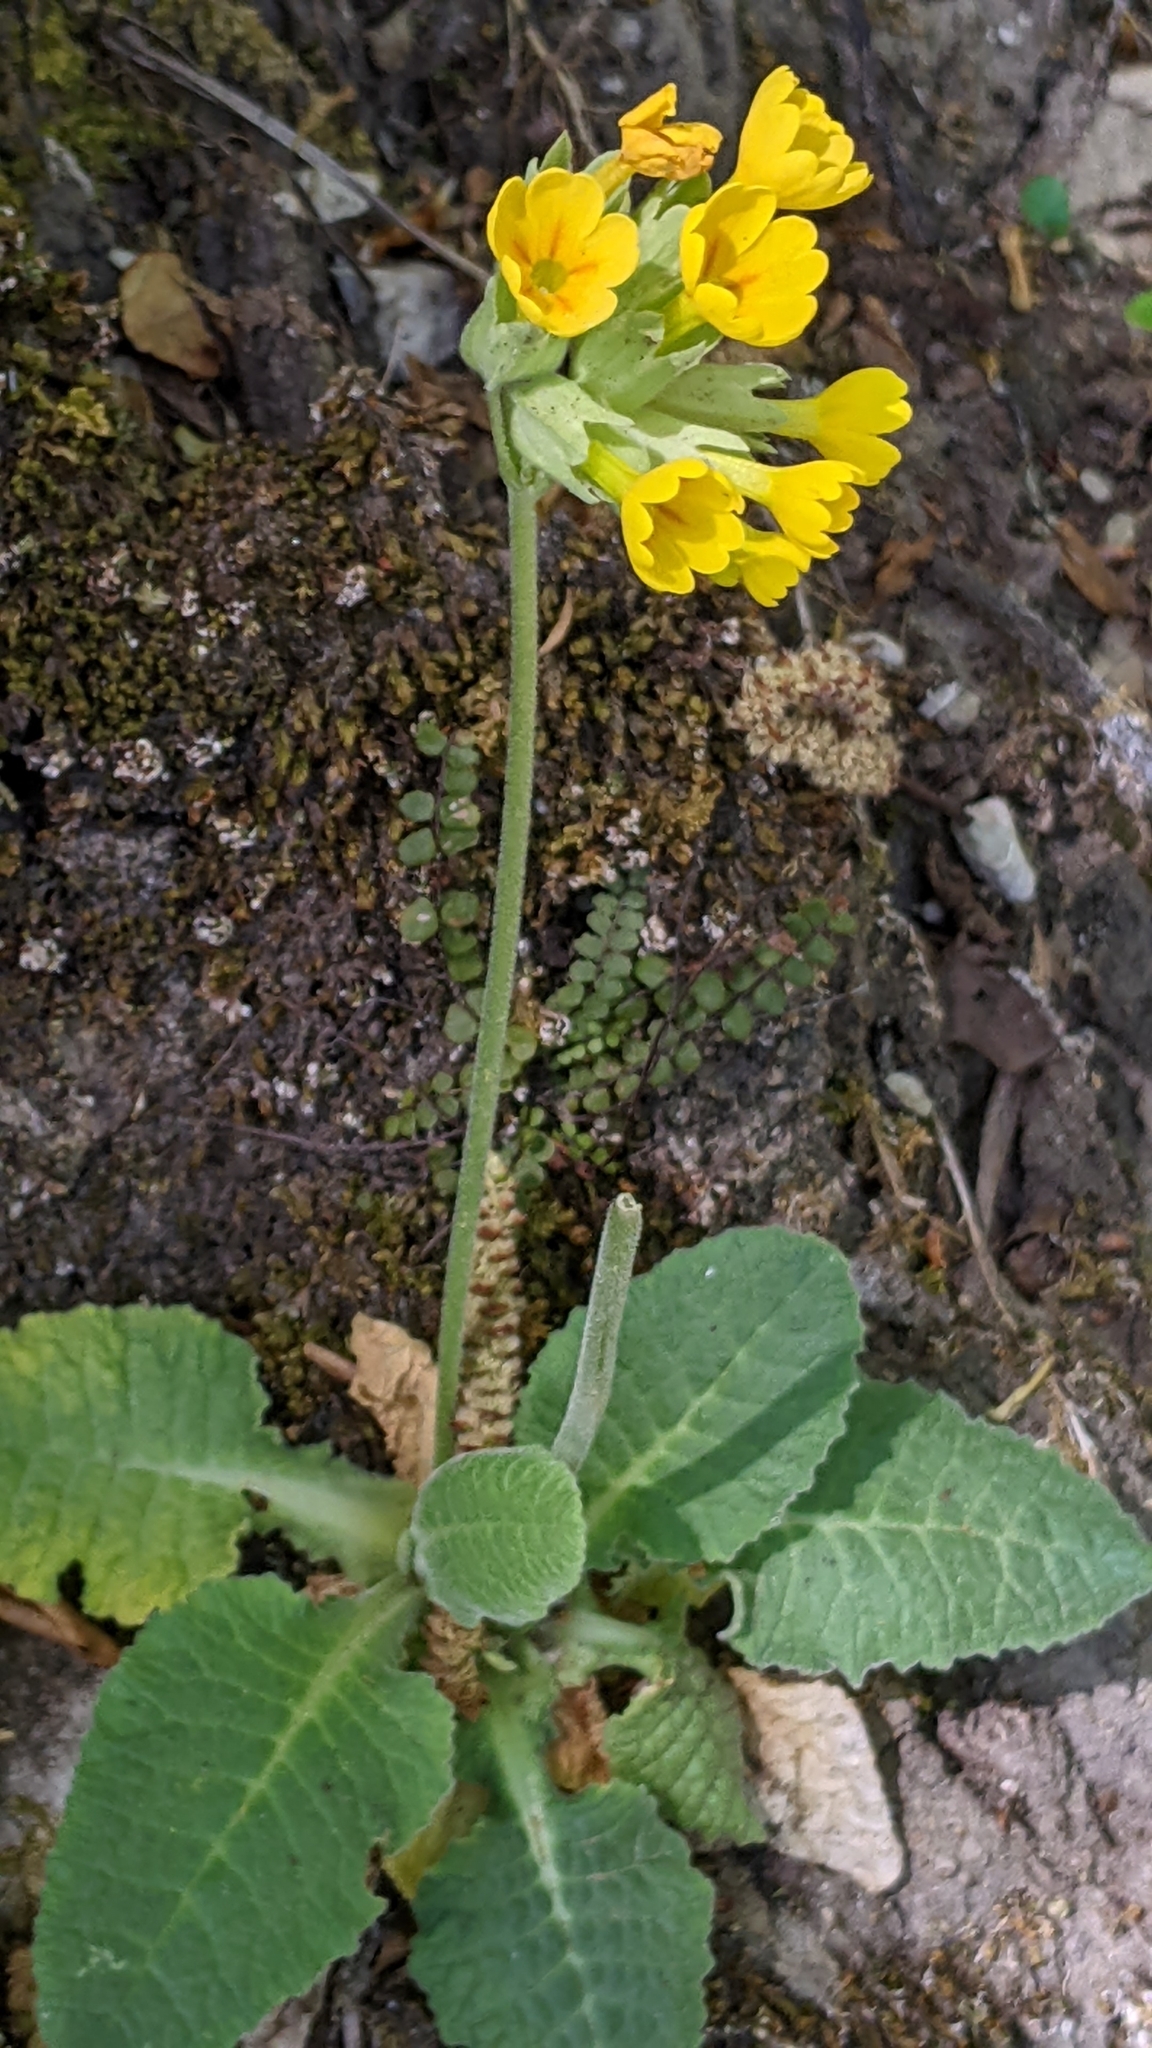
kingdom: Plantae
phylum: Tracheophyta
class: Magnoliopsida
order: Ericales
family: Primulaceae
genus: Primula
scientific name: Primula veris
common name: Cowslip
